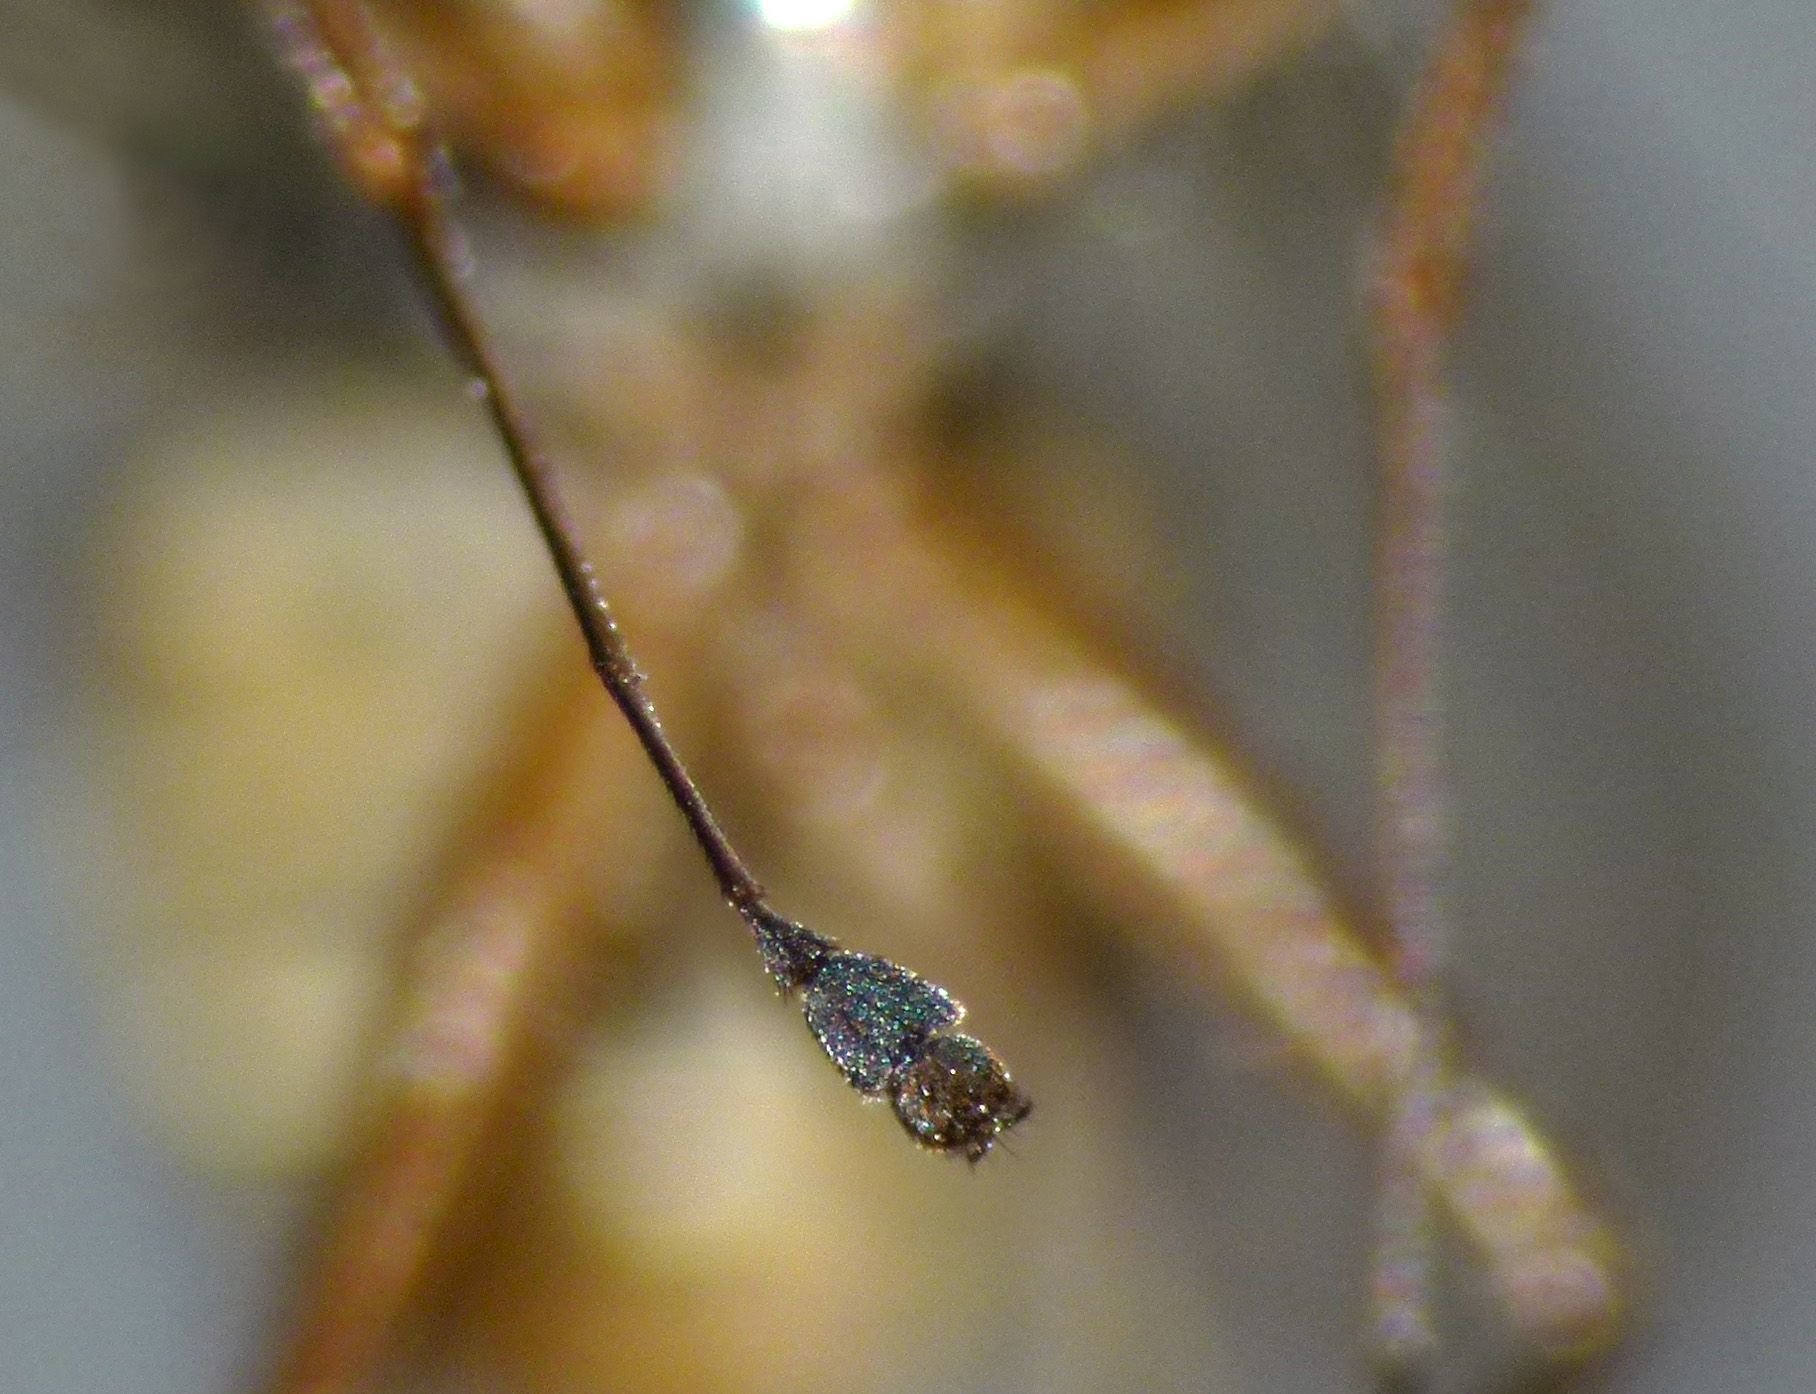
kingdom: Animalia
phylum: Arthropoda
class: Insecta
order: Diptera
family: Muscidae
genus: Spilogona
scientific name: Spilogona latimanus
